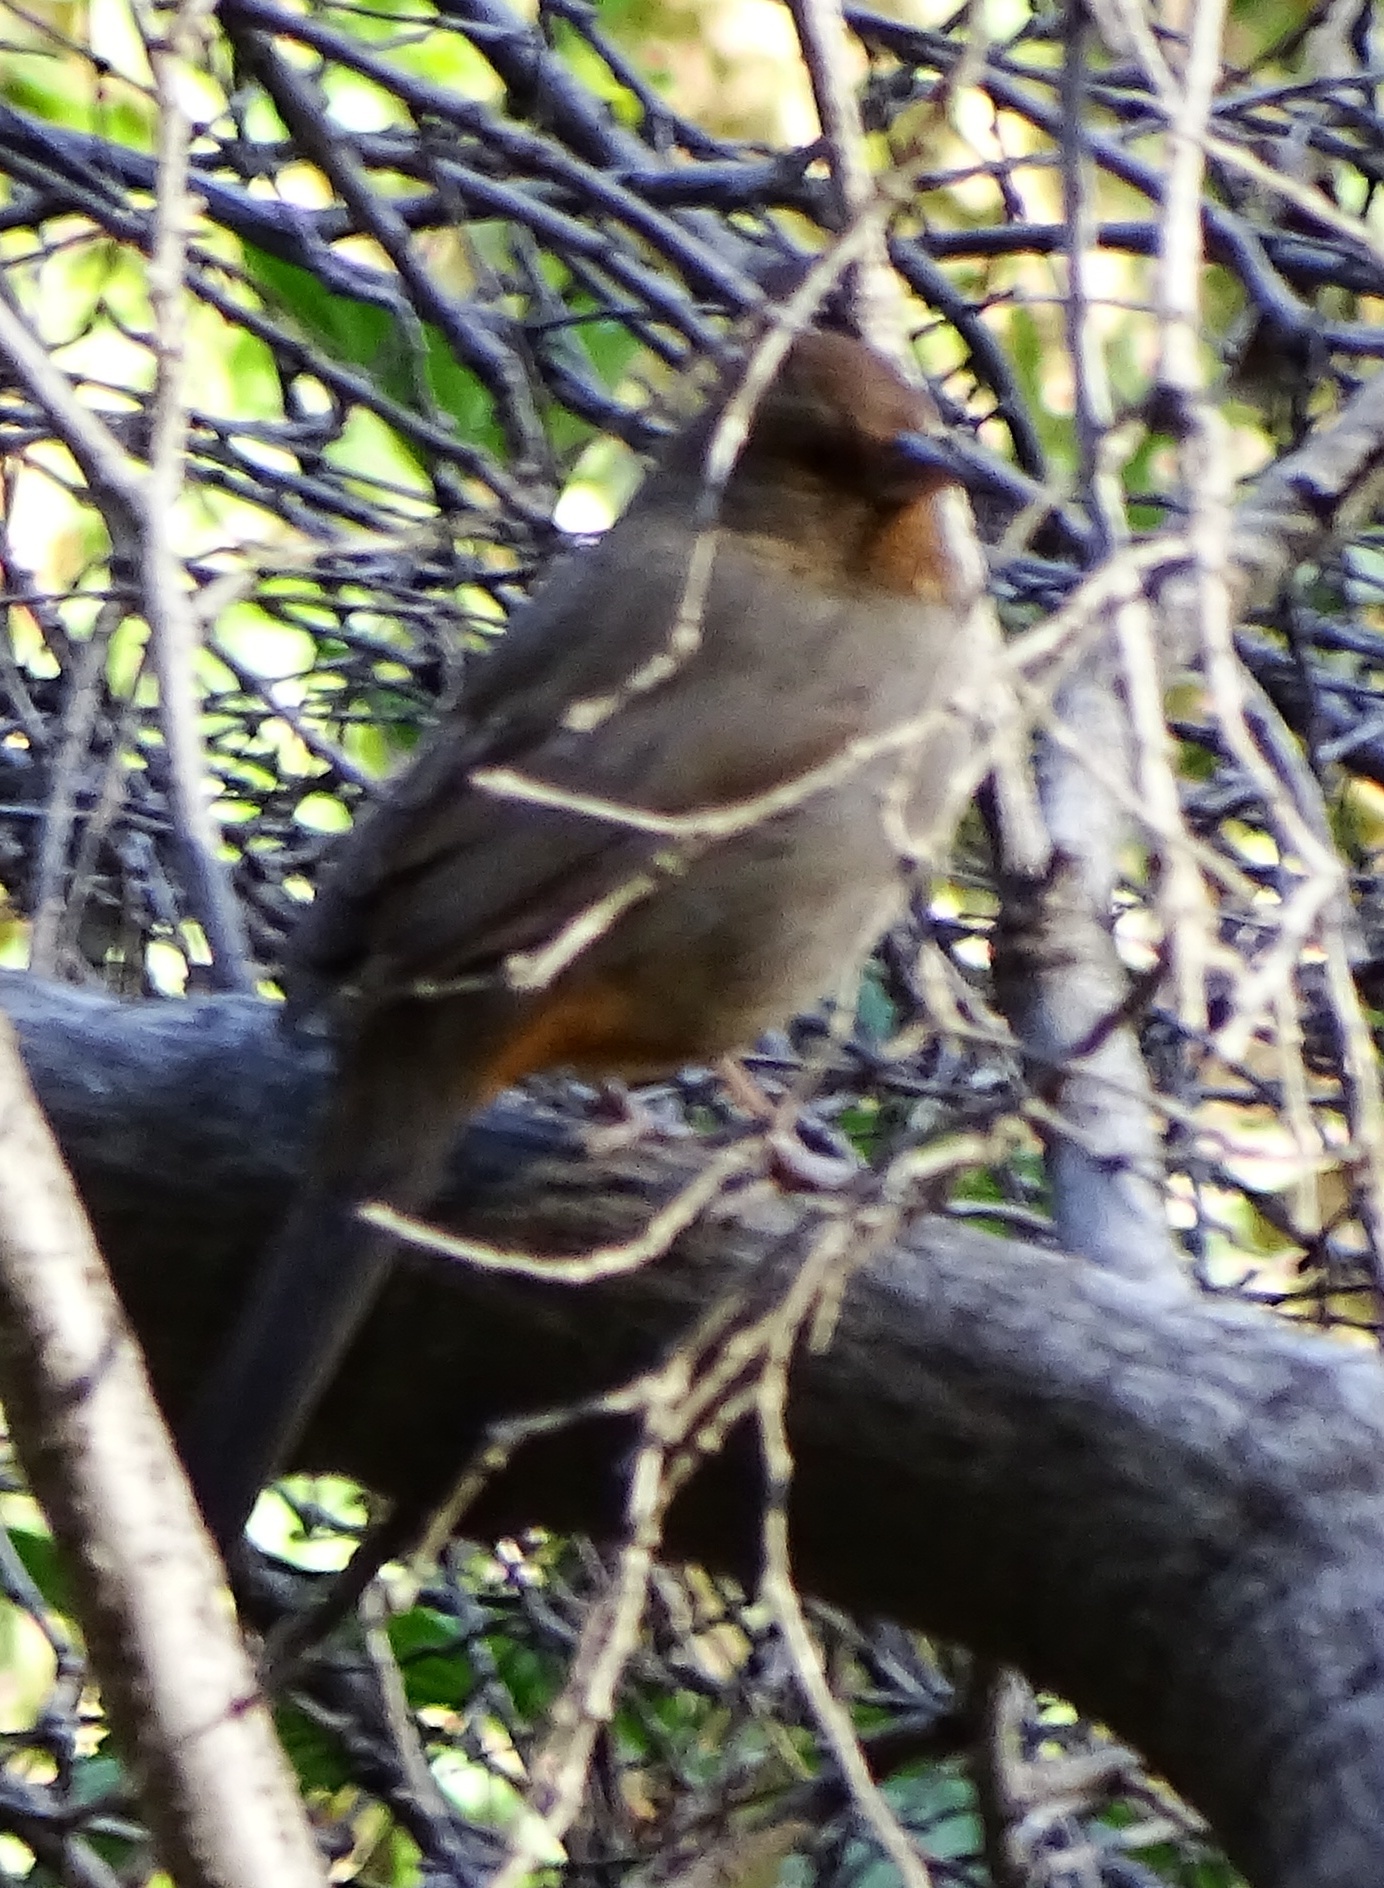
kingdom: Animalia
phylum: Chordata
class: Aves
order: Passeriformes
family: Passerellidae
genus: Melozone
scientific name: Melozone crissalis
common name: California towhee
